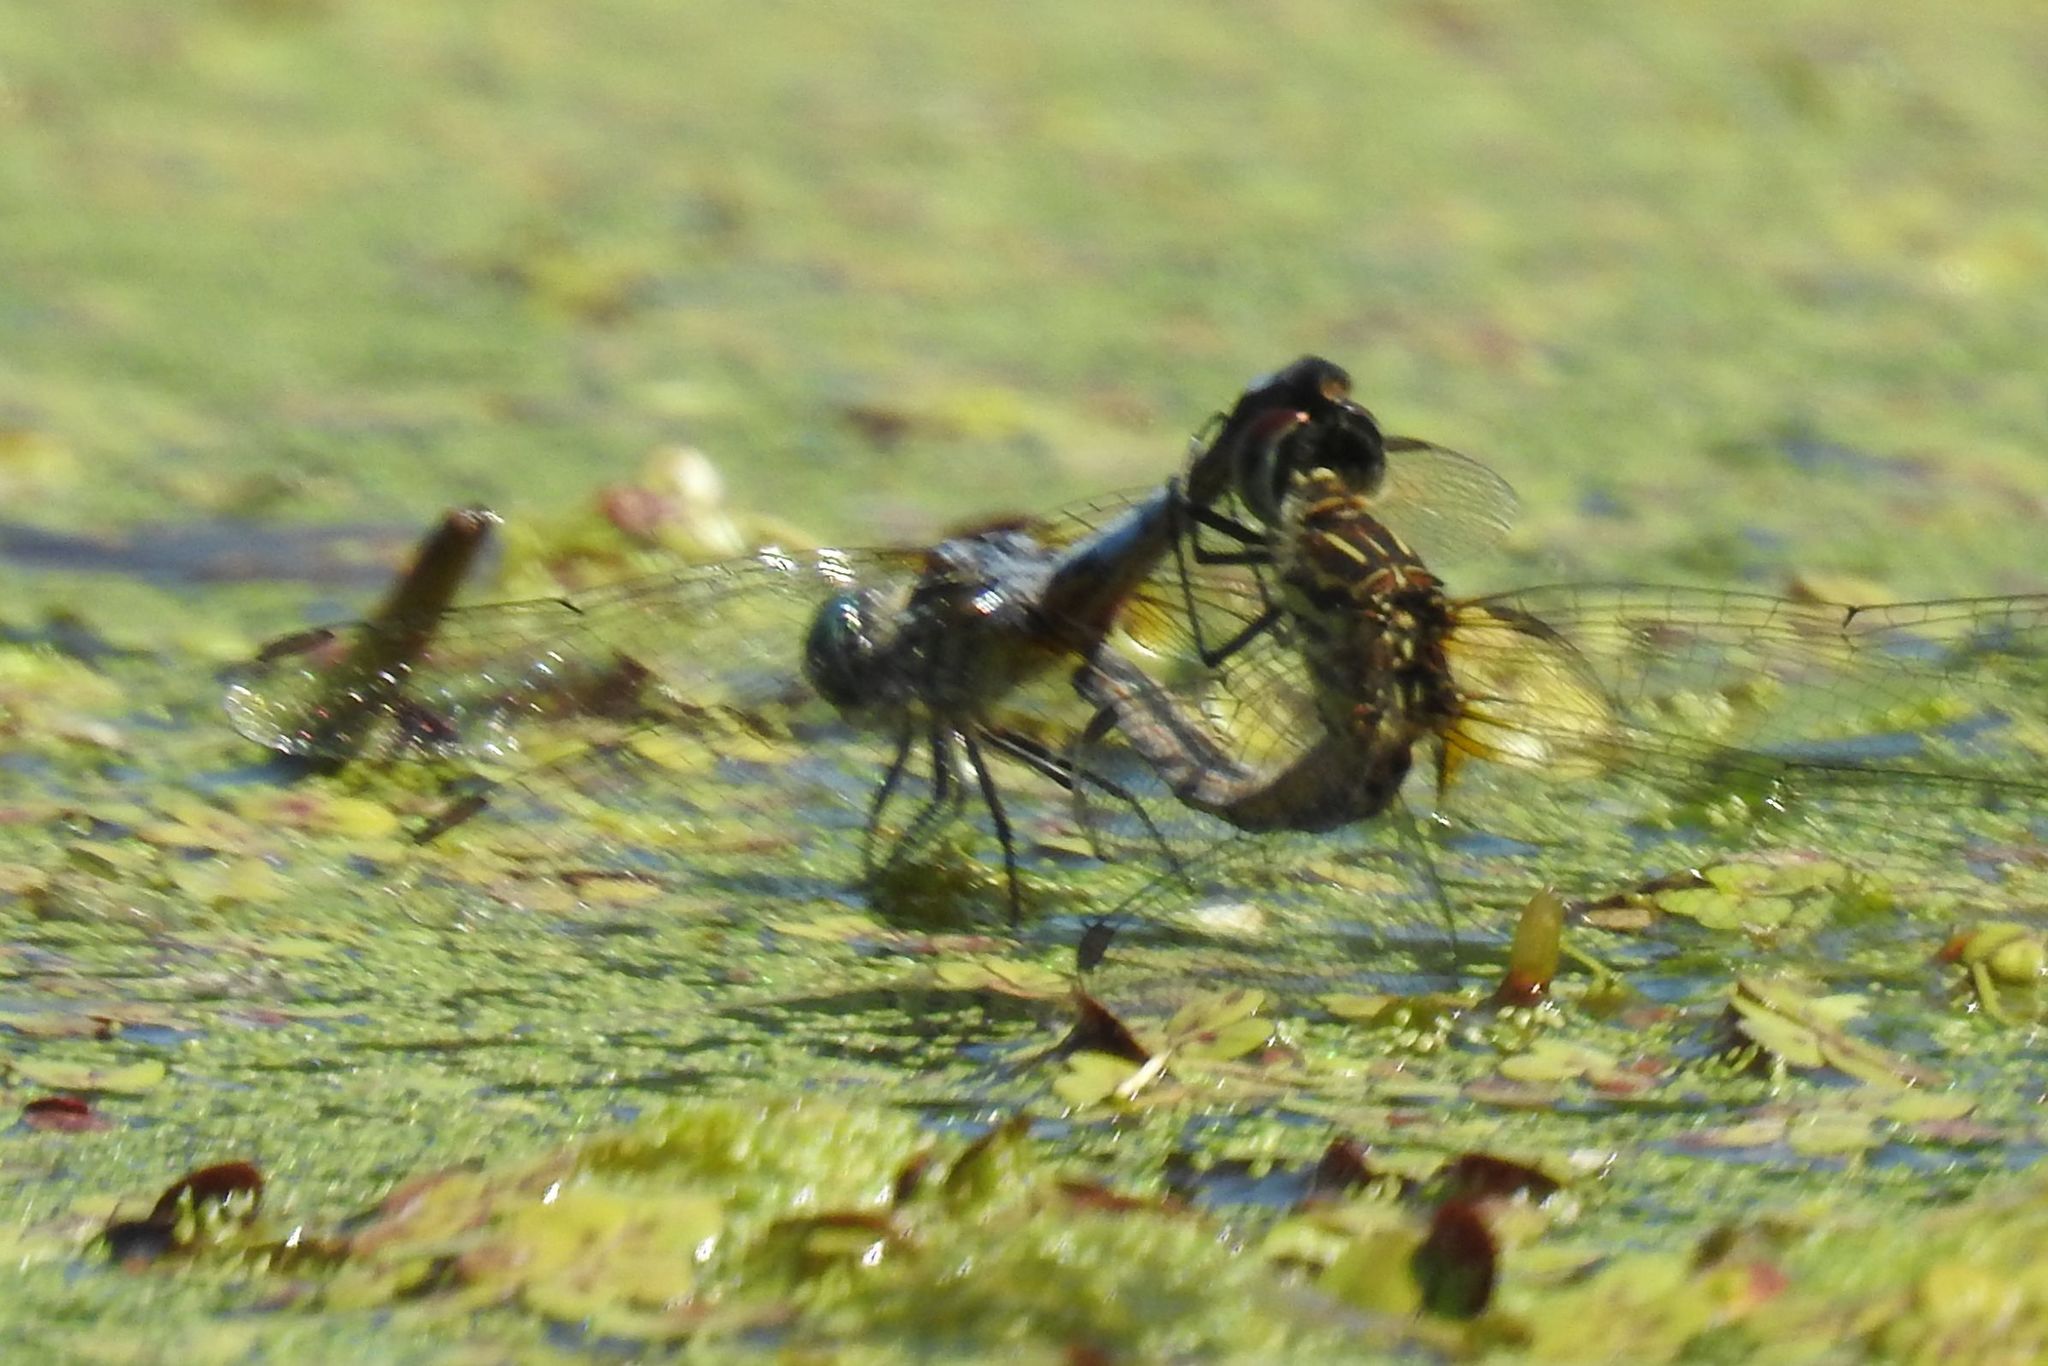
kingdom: Animalia
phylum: Arthropoda
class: Insecta
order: Odonata
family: Libellulidae
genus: Pachydiplax
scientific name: Pachydiplax longipennis
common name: Blue dasher
